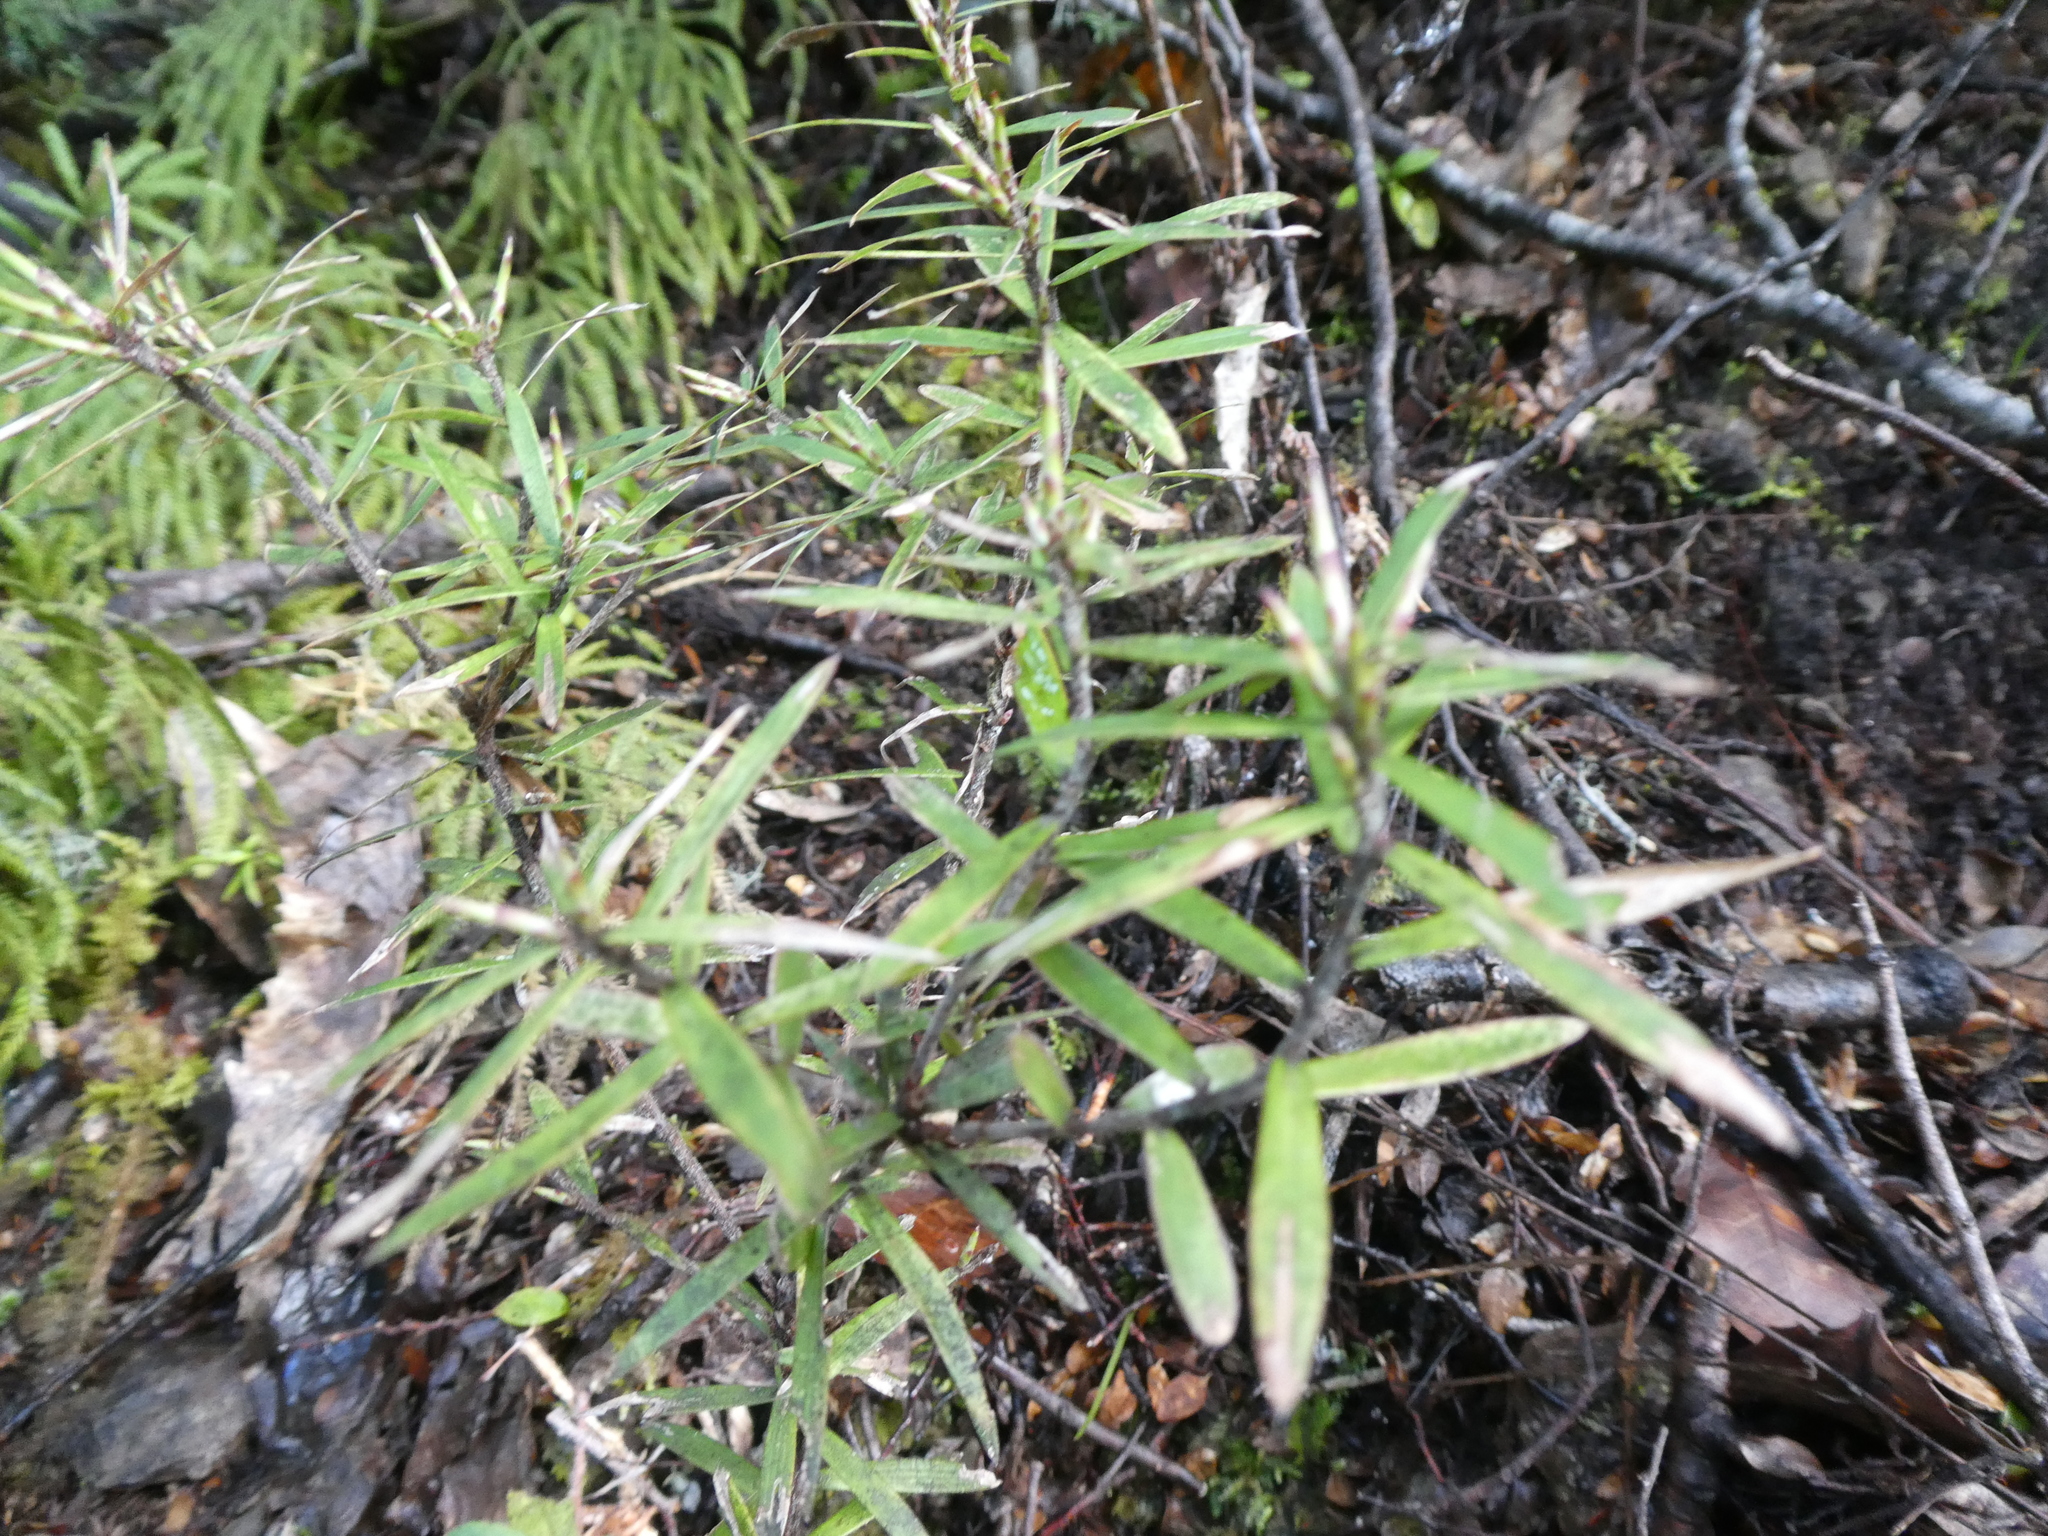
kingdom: Plantae
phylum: Tracheophyta
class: Magnoliopsida
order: Ericales
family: Ericaceae
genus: Leucopogon
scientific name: Leucopogon fasciculatus
